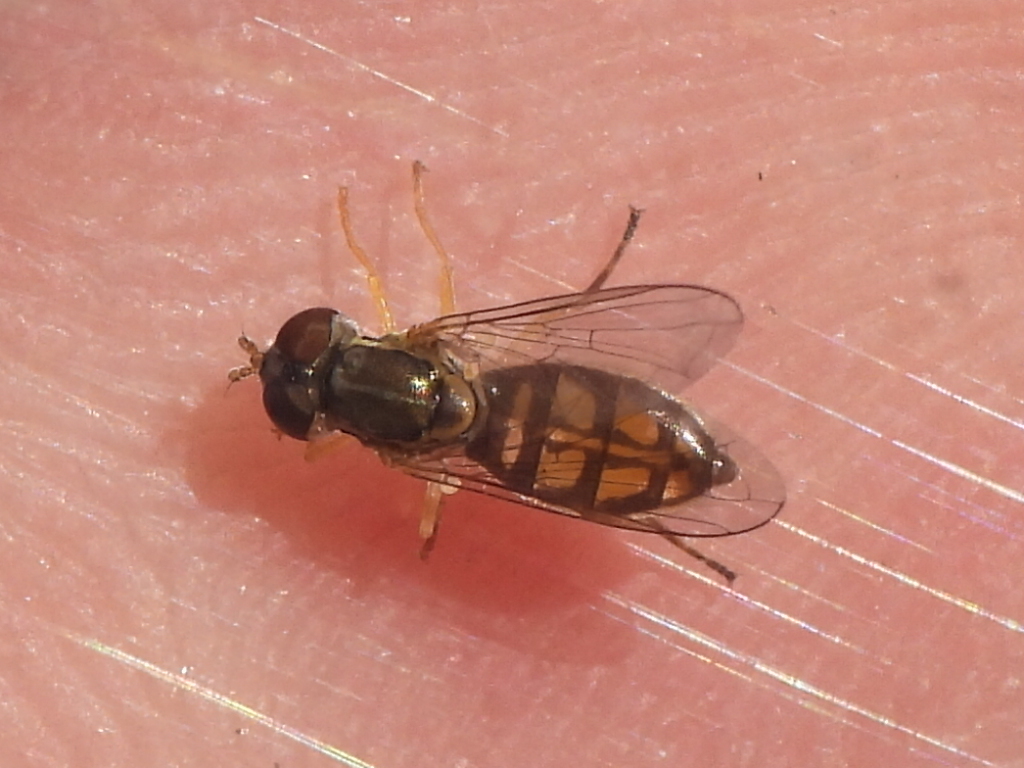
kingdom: Animalia
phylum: Arthropoda
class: Insecta
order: Diptera
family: Syrphidae
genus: Toxomerus
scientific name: Toxomerus marginatus
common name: Syrphid fly
